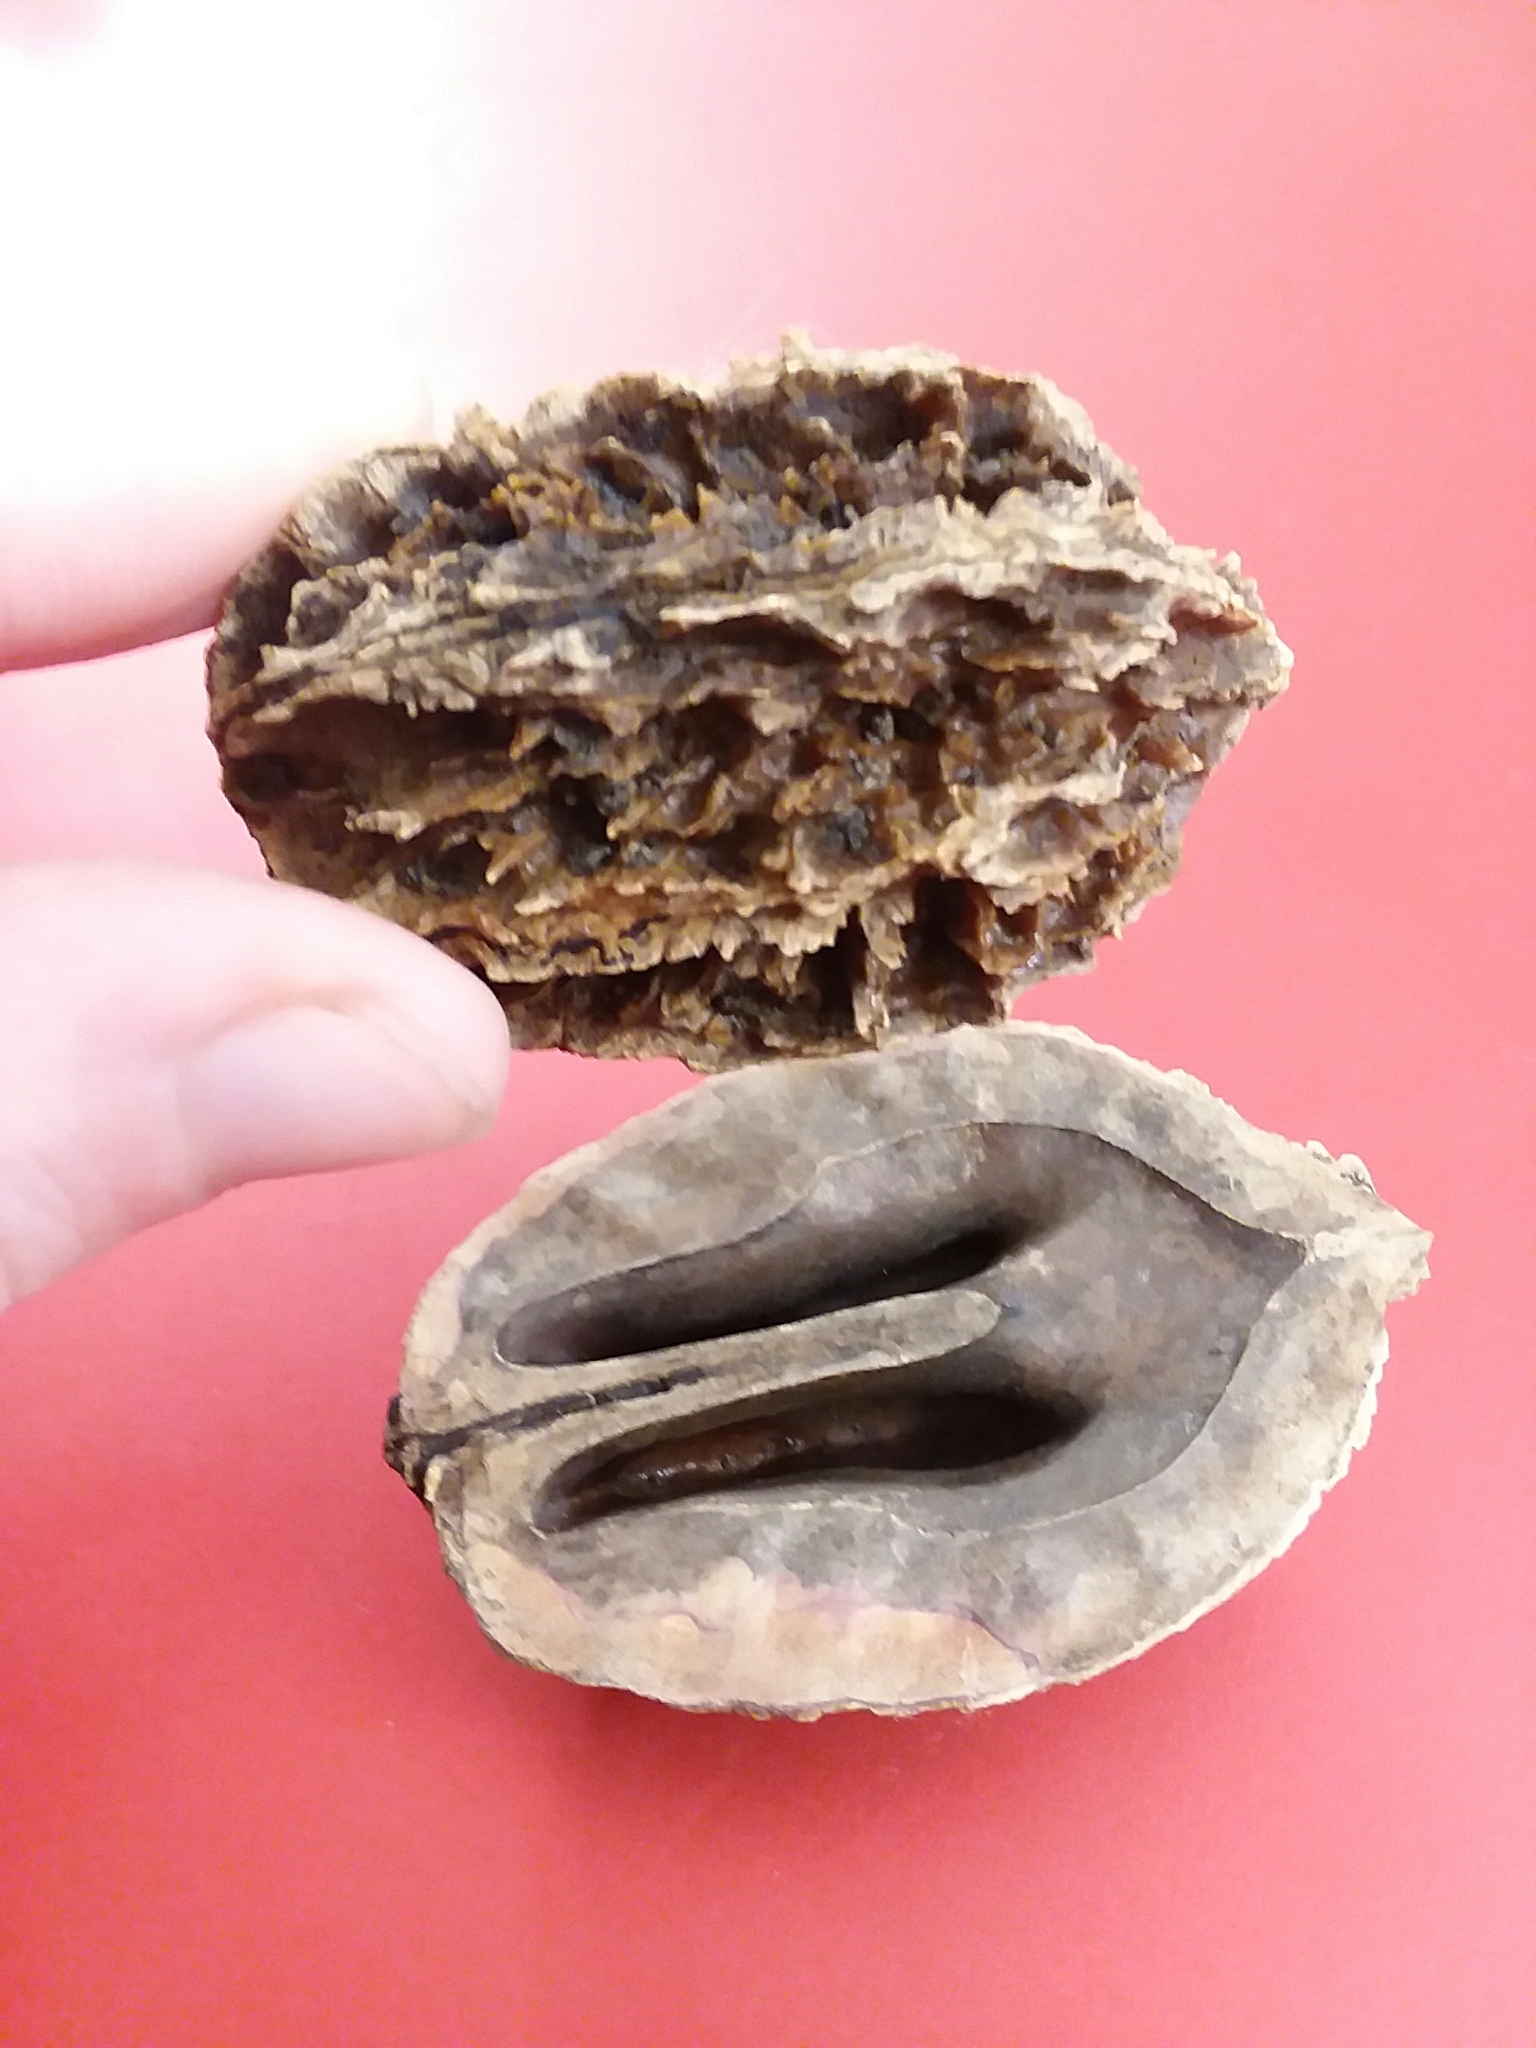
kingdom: Plantae
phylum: Tracheophyta
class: Magnoliopsida
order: Fagales
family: Juglandaceae
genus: Juglans
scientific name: Juglans cinerea
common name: Butternut
